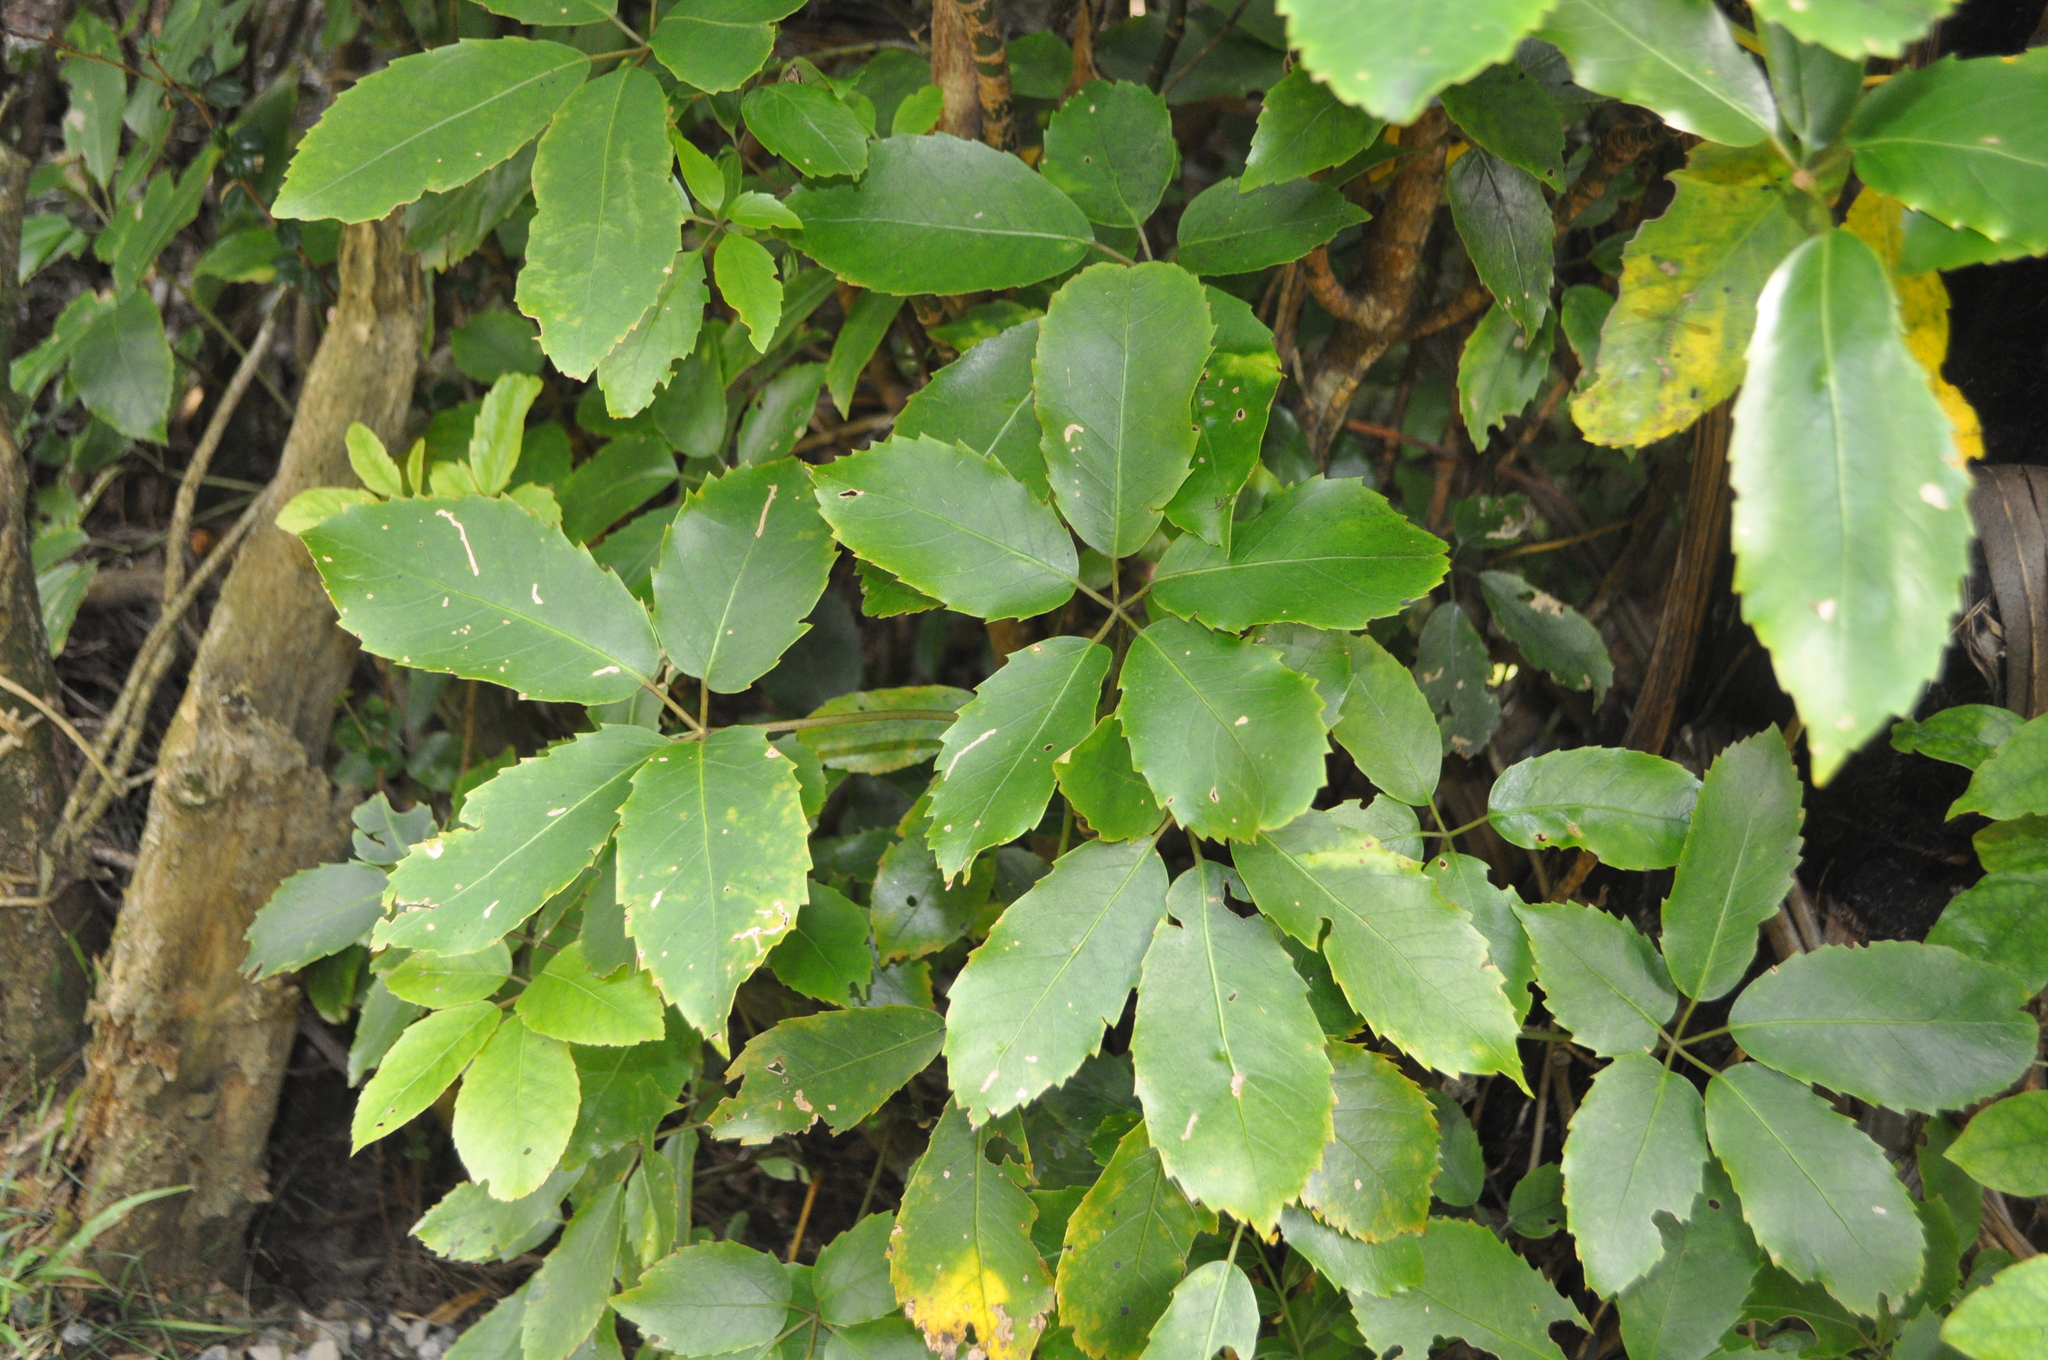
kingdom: Plantae
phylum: Tracheophyta
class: Magnoliopsida
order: Apiales
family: Araliaceae
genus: Neopanax
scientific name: Neopanax arboreus
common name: Five-fingers
